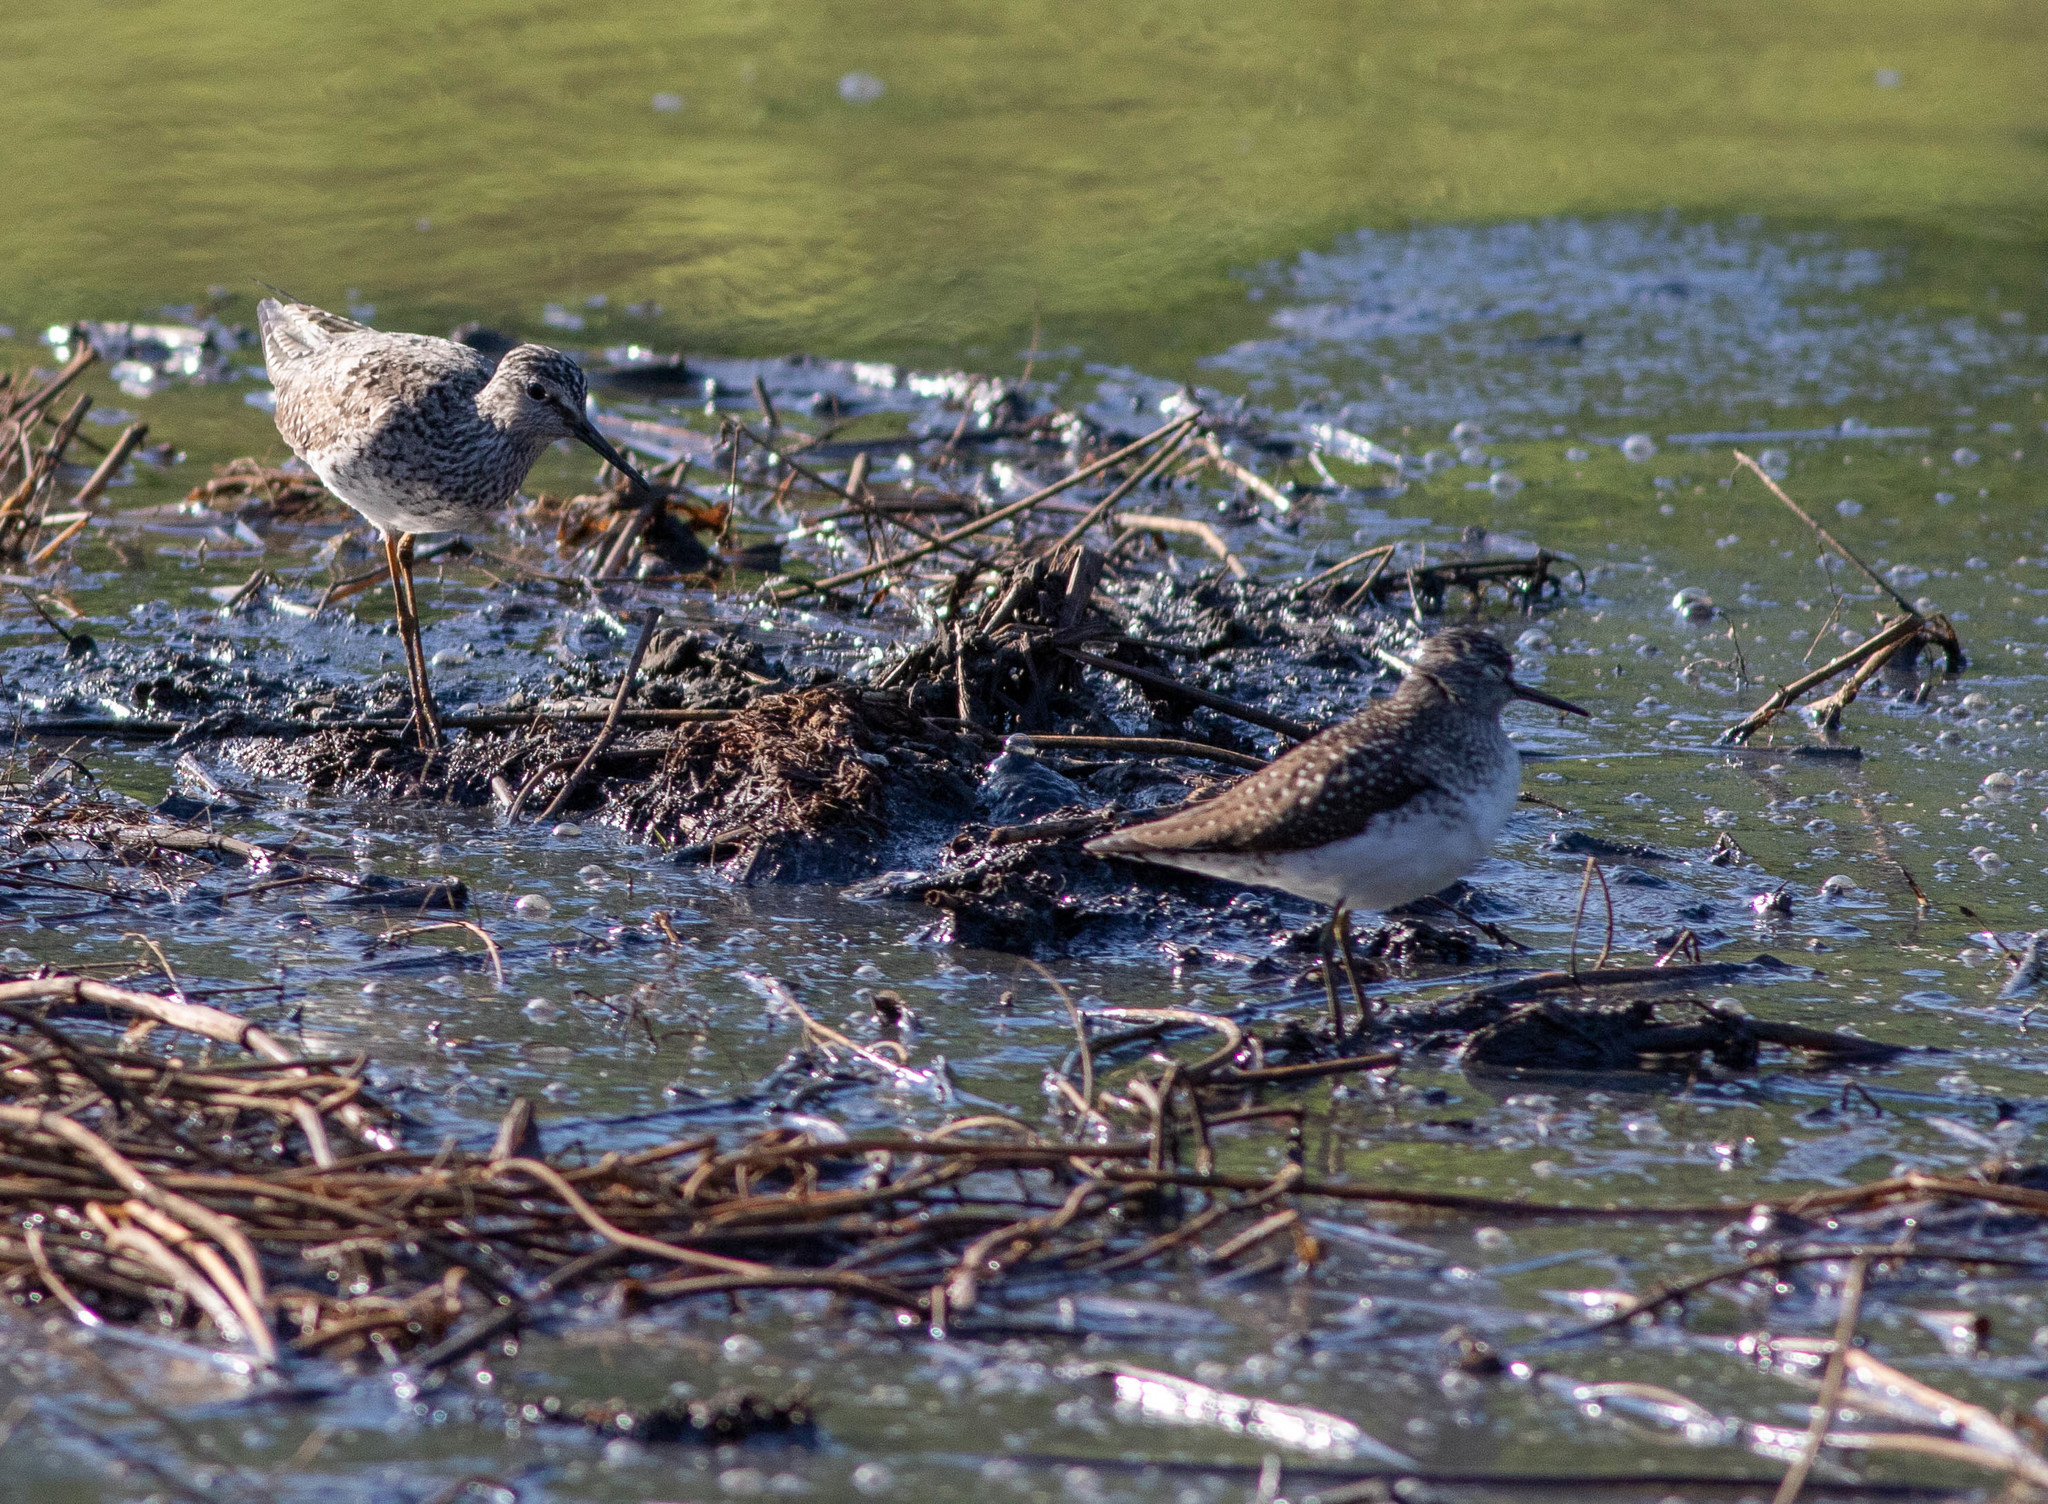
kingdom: Animalia
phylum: Chordata
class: Aves
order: Charadriiformes
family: Scolopacidae
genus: Tringa
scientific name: Tringa solitaria
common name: Solitary sandpiper
